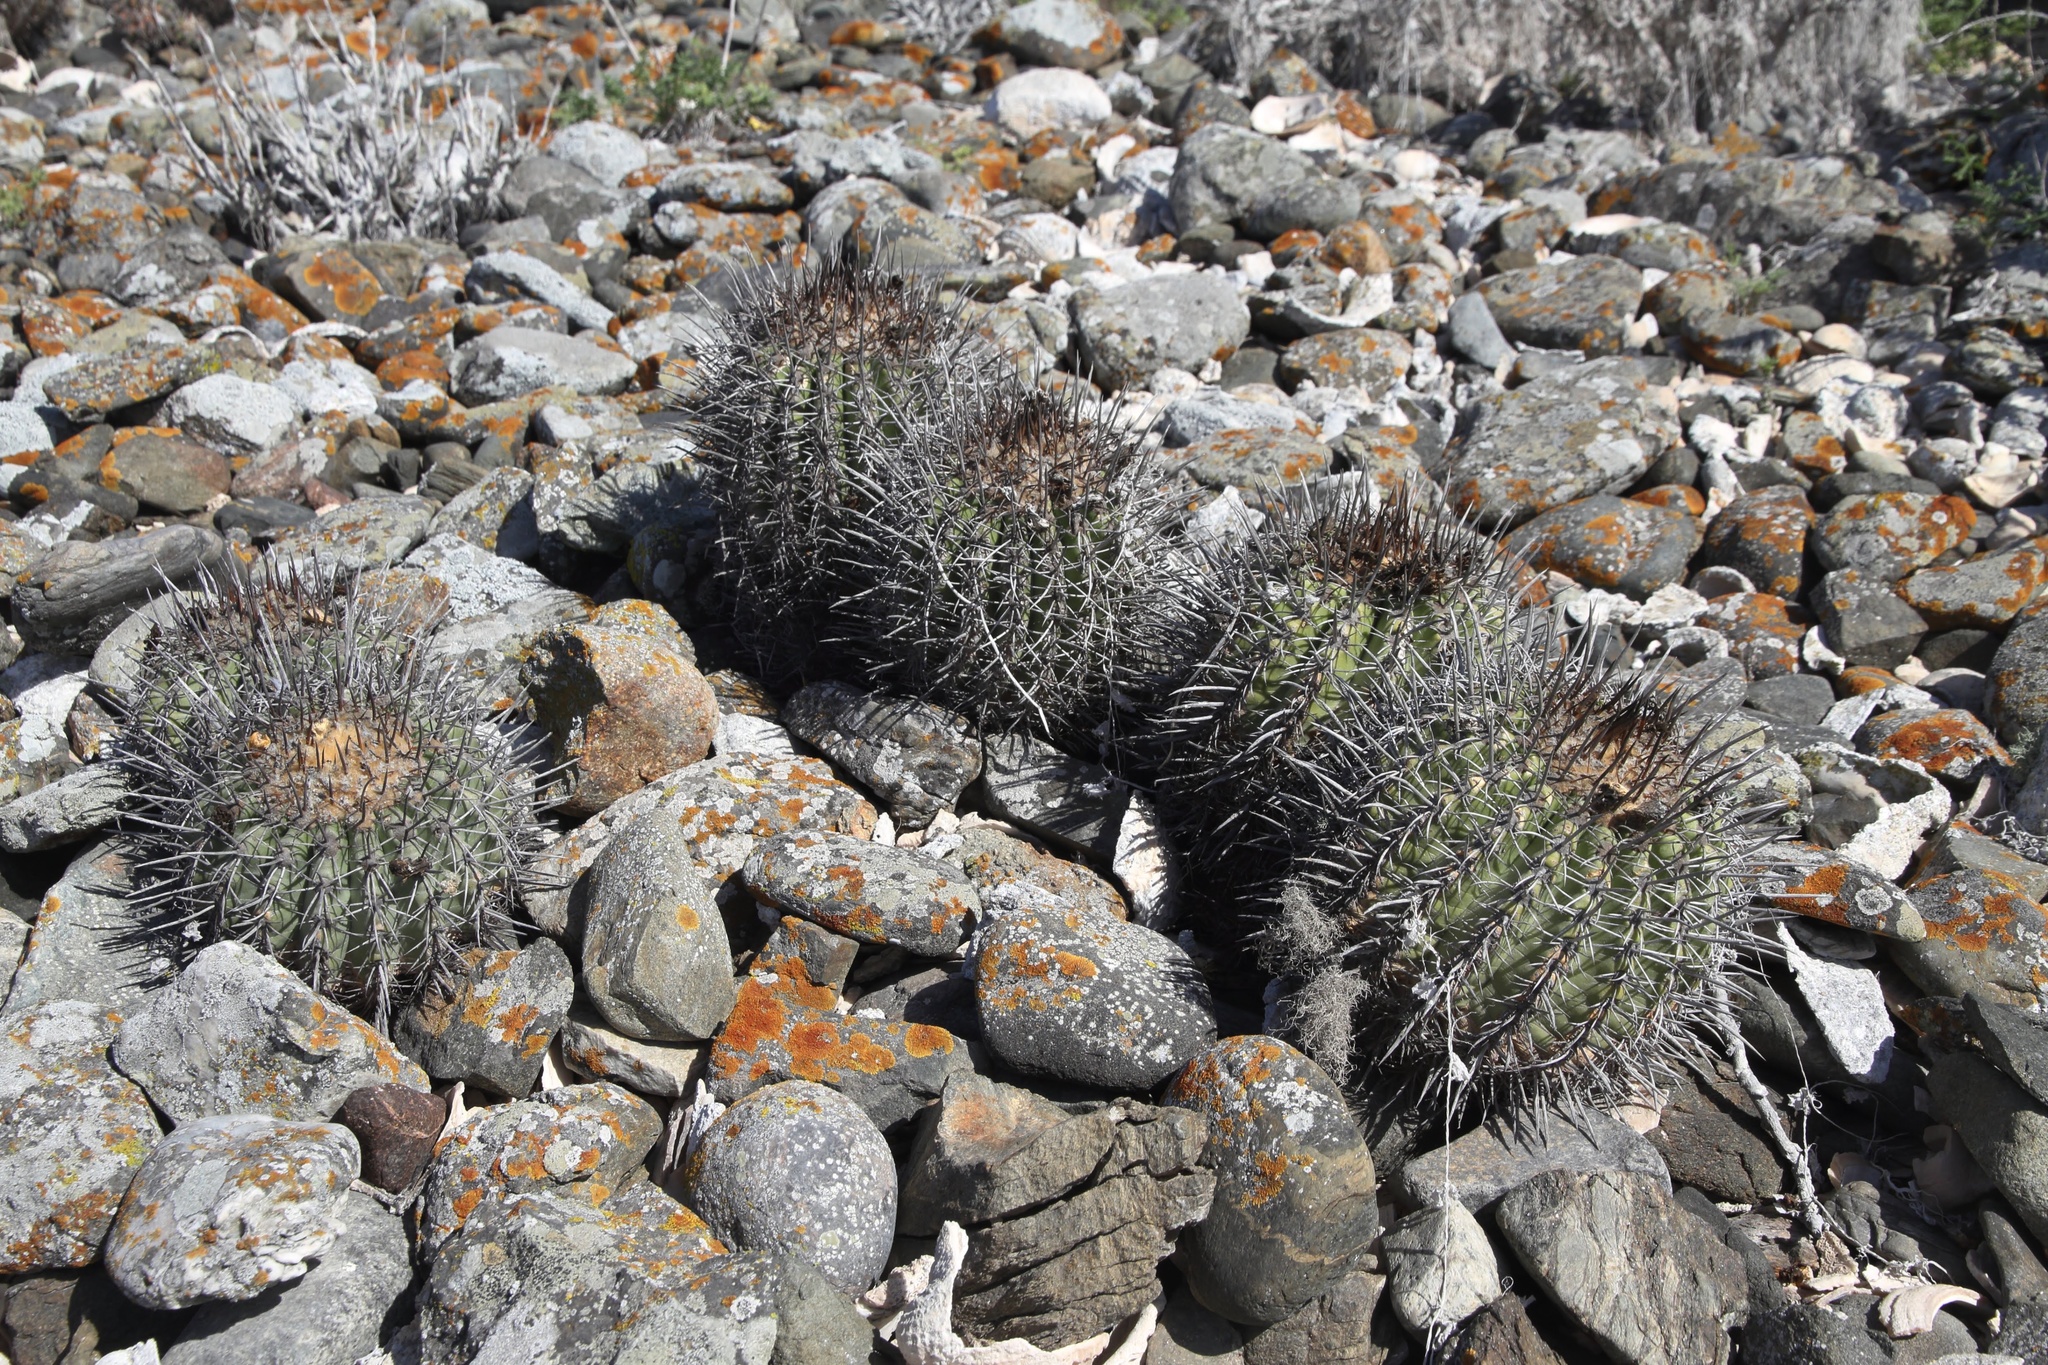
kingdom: Plantae
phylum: Tracheophyta
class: Magnoliopsida
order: Caryophyllales
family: Cactaceae
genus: Copiapoa
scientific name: Copiapoa coquimbana
